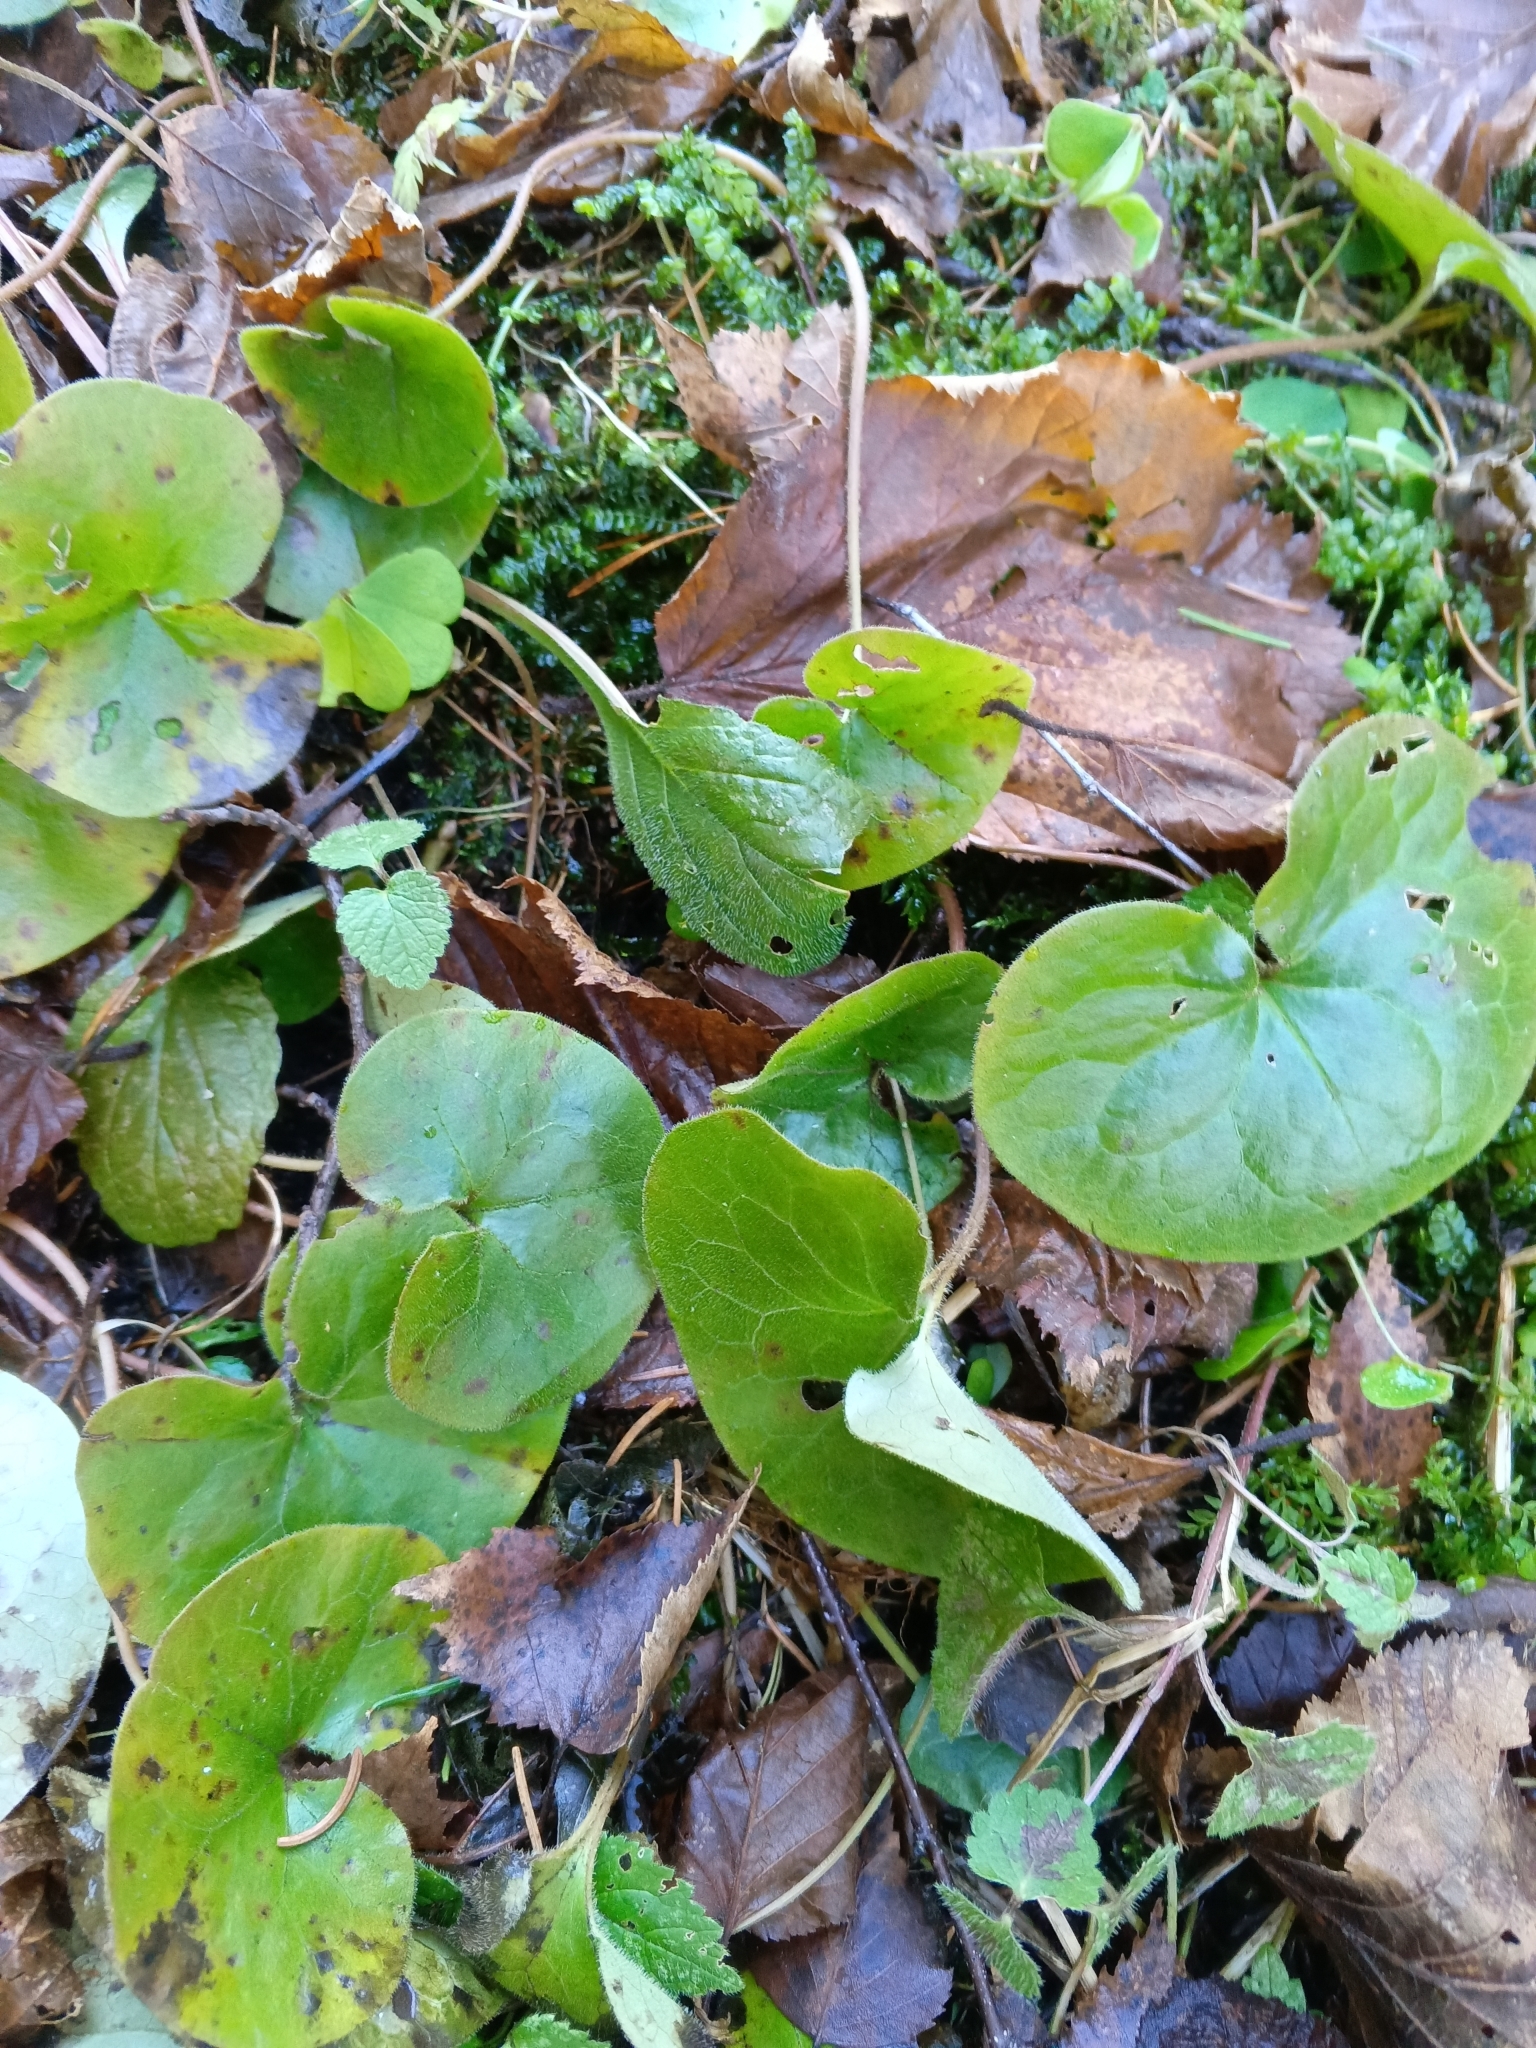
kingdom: Plantae
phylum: Tracheophyta
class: Magnoliopsida
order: Piperales
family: Aristolochiaceae
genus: Asarum
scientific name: Asarum europaeum
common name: Asarabacca
